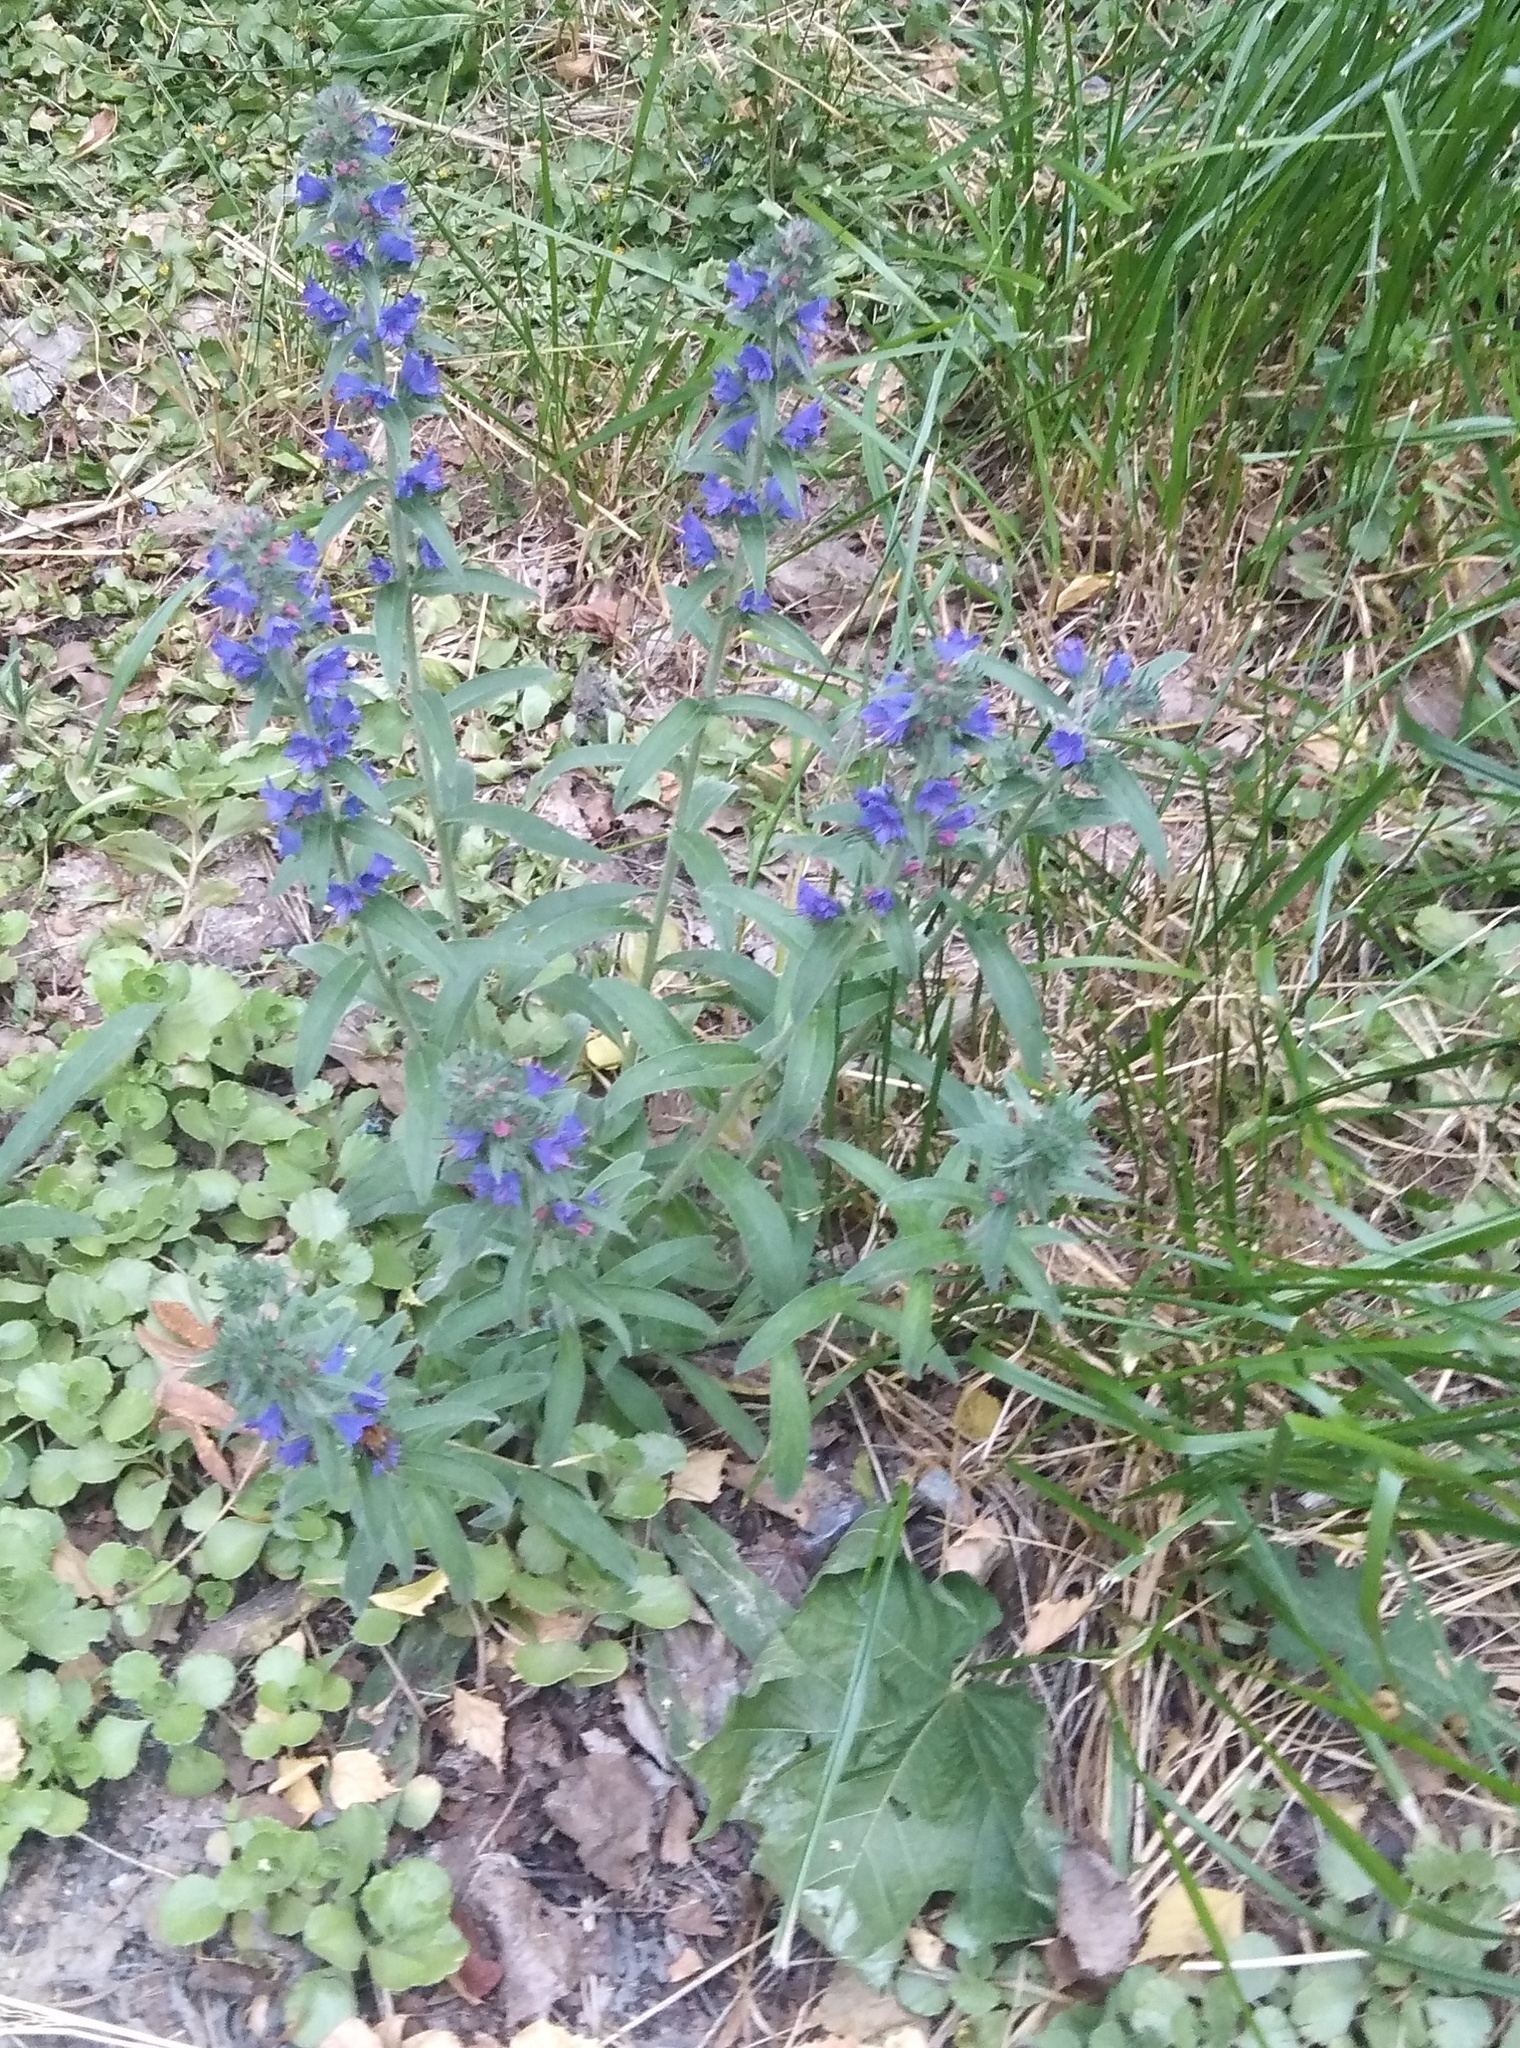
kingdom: Plantae
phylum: Tracheophyta
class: Magnoliopsida
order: Boraginales
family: Boraginaceae
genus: Echium
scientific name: Echium vulgare
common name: Common viper's bugloss
